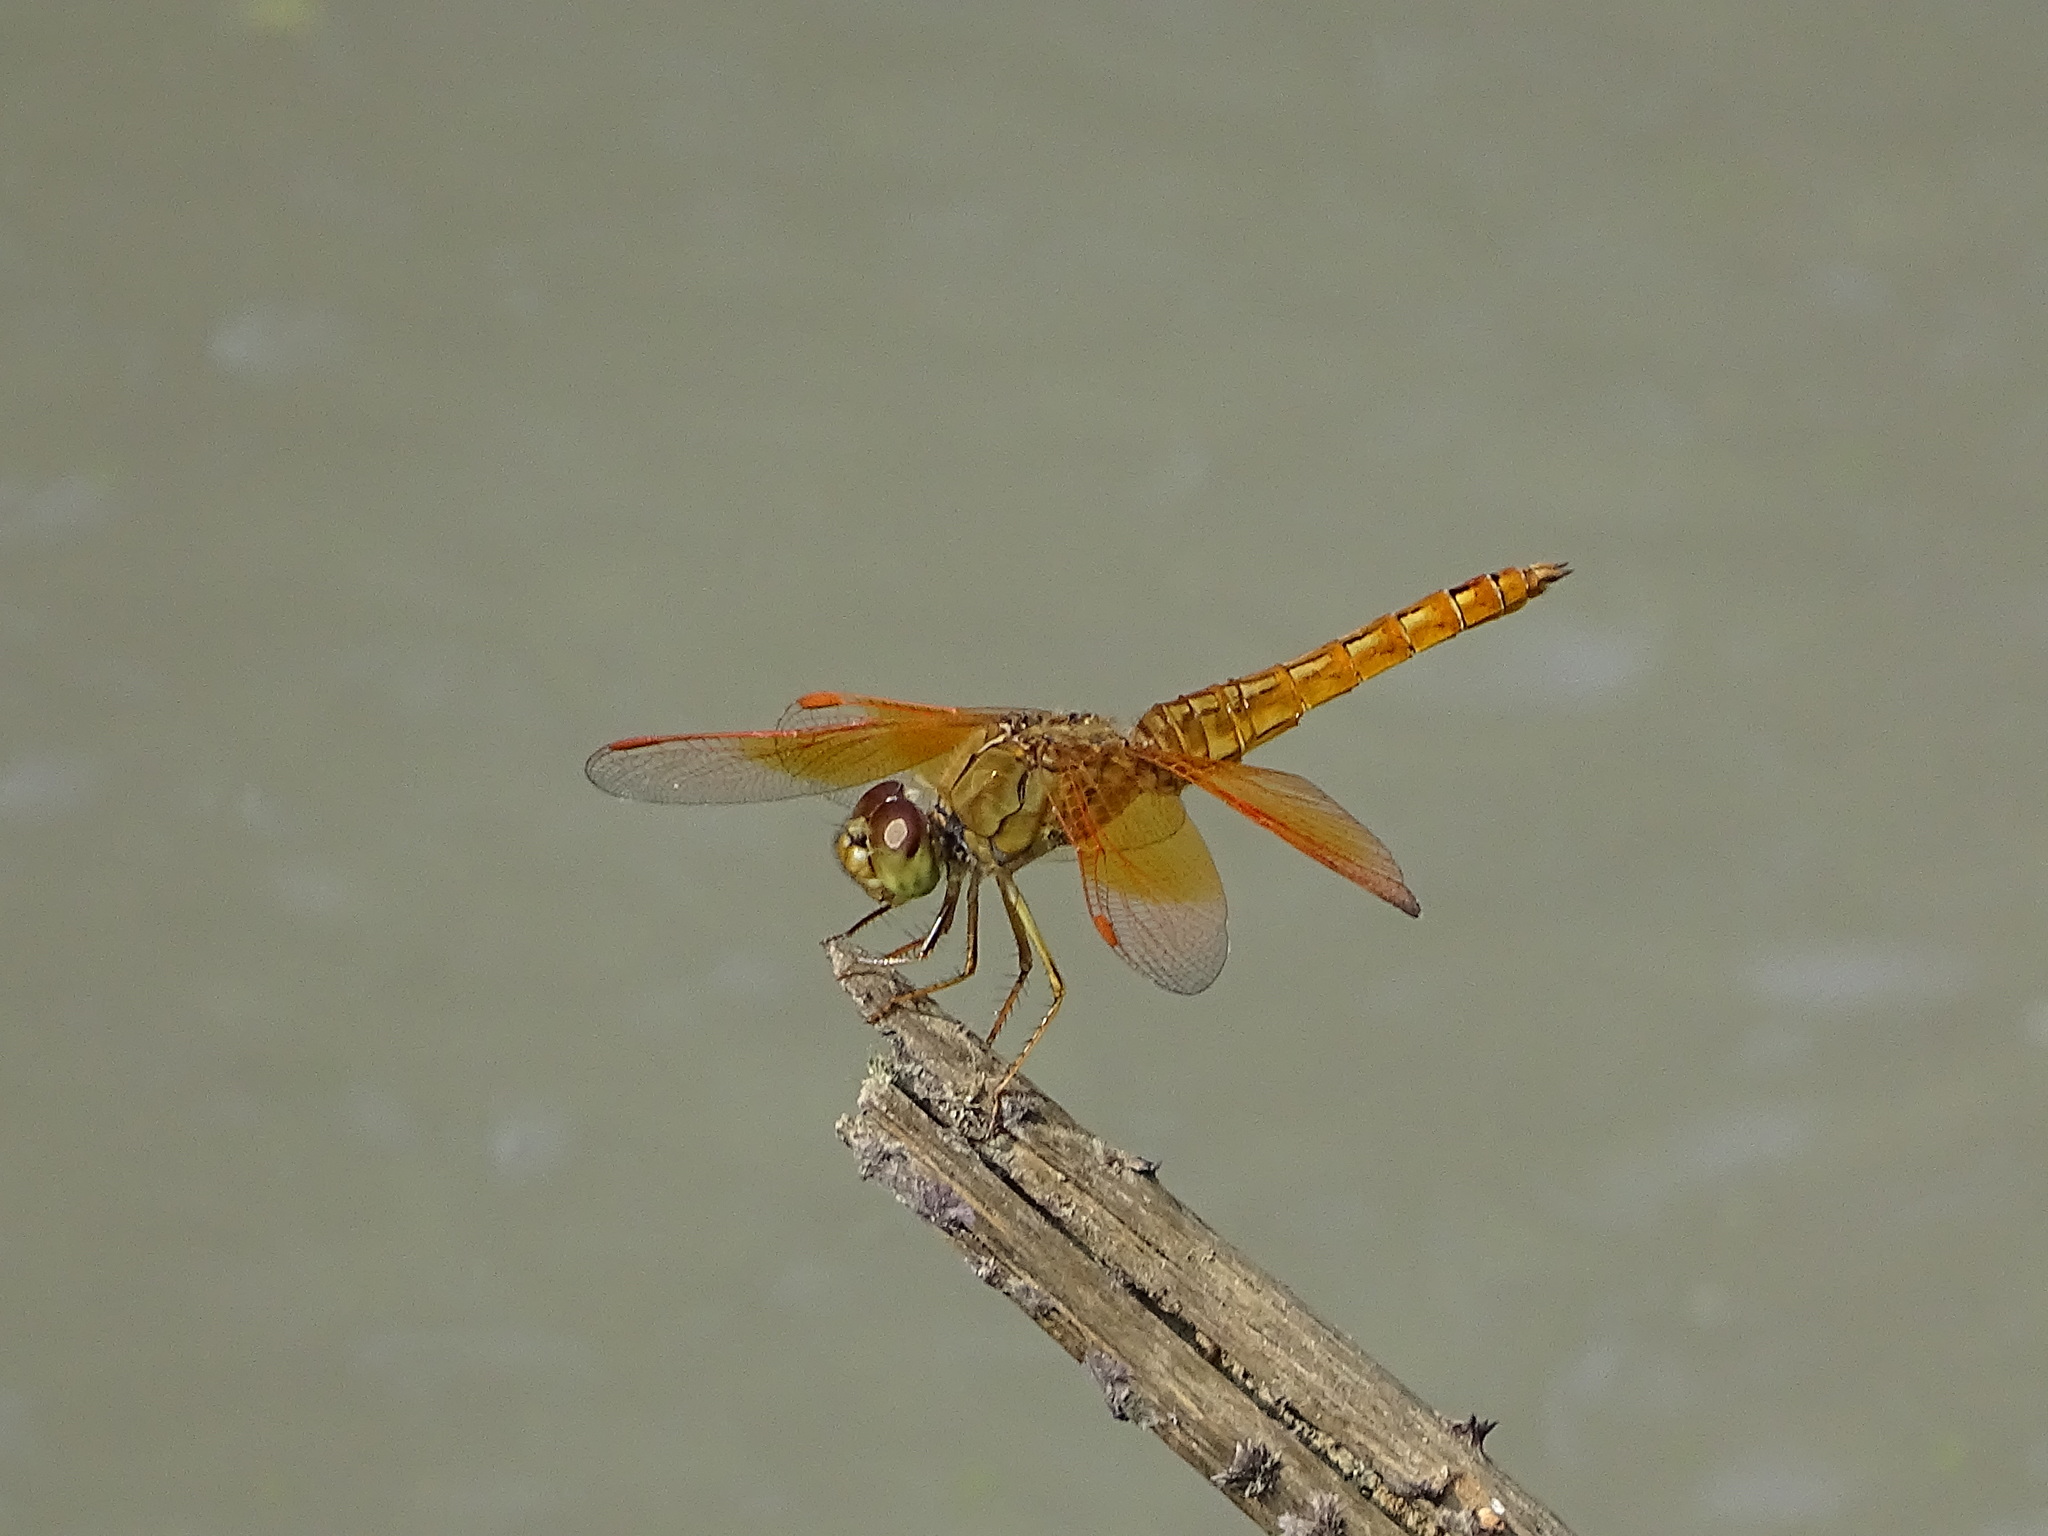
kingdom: Animalia
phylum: Arthropoda
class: Insecta
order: Odonata
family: Libellulidae
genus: Brachythemis
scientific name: Brachythemis contaminata
